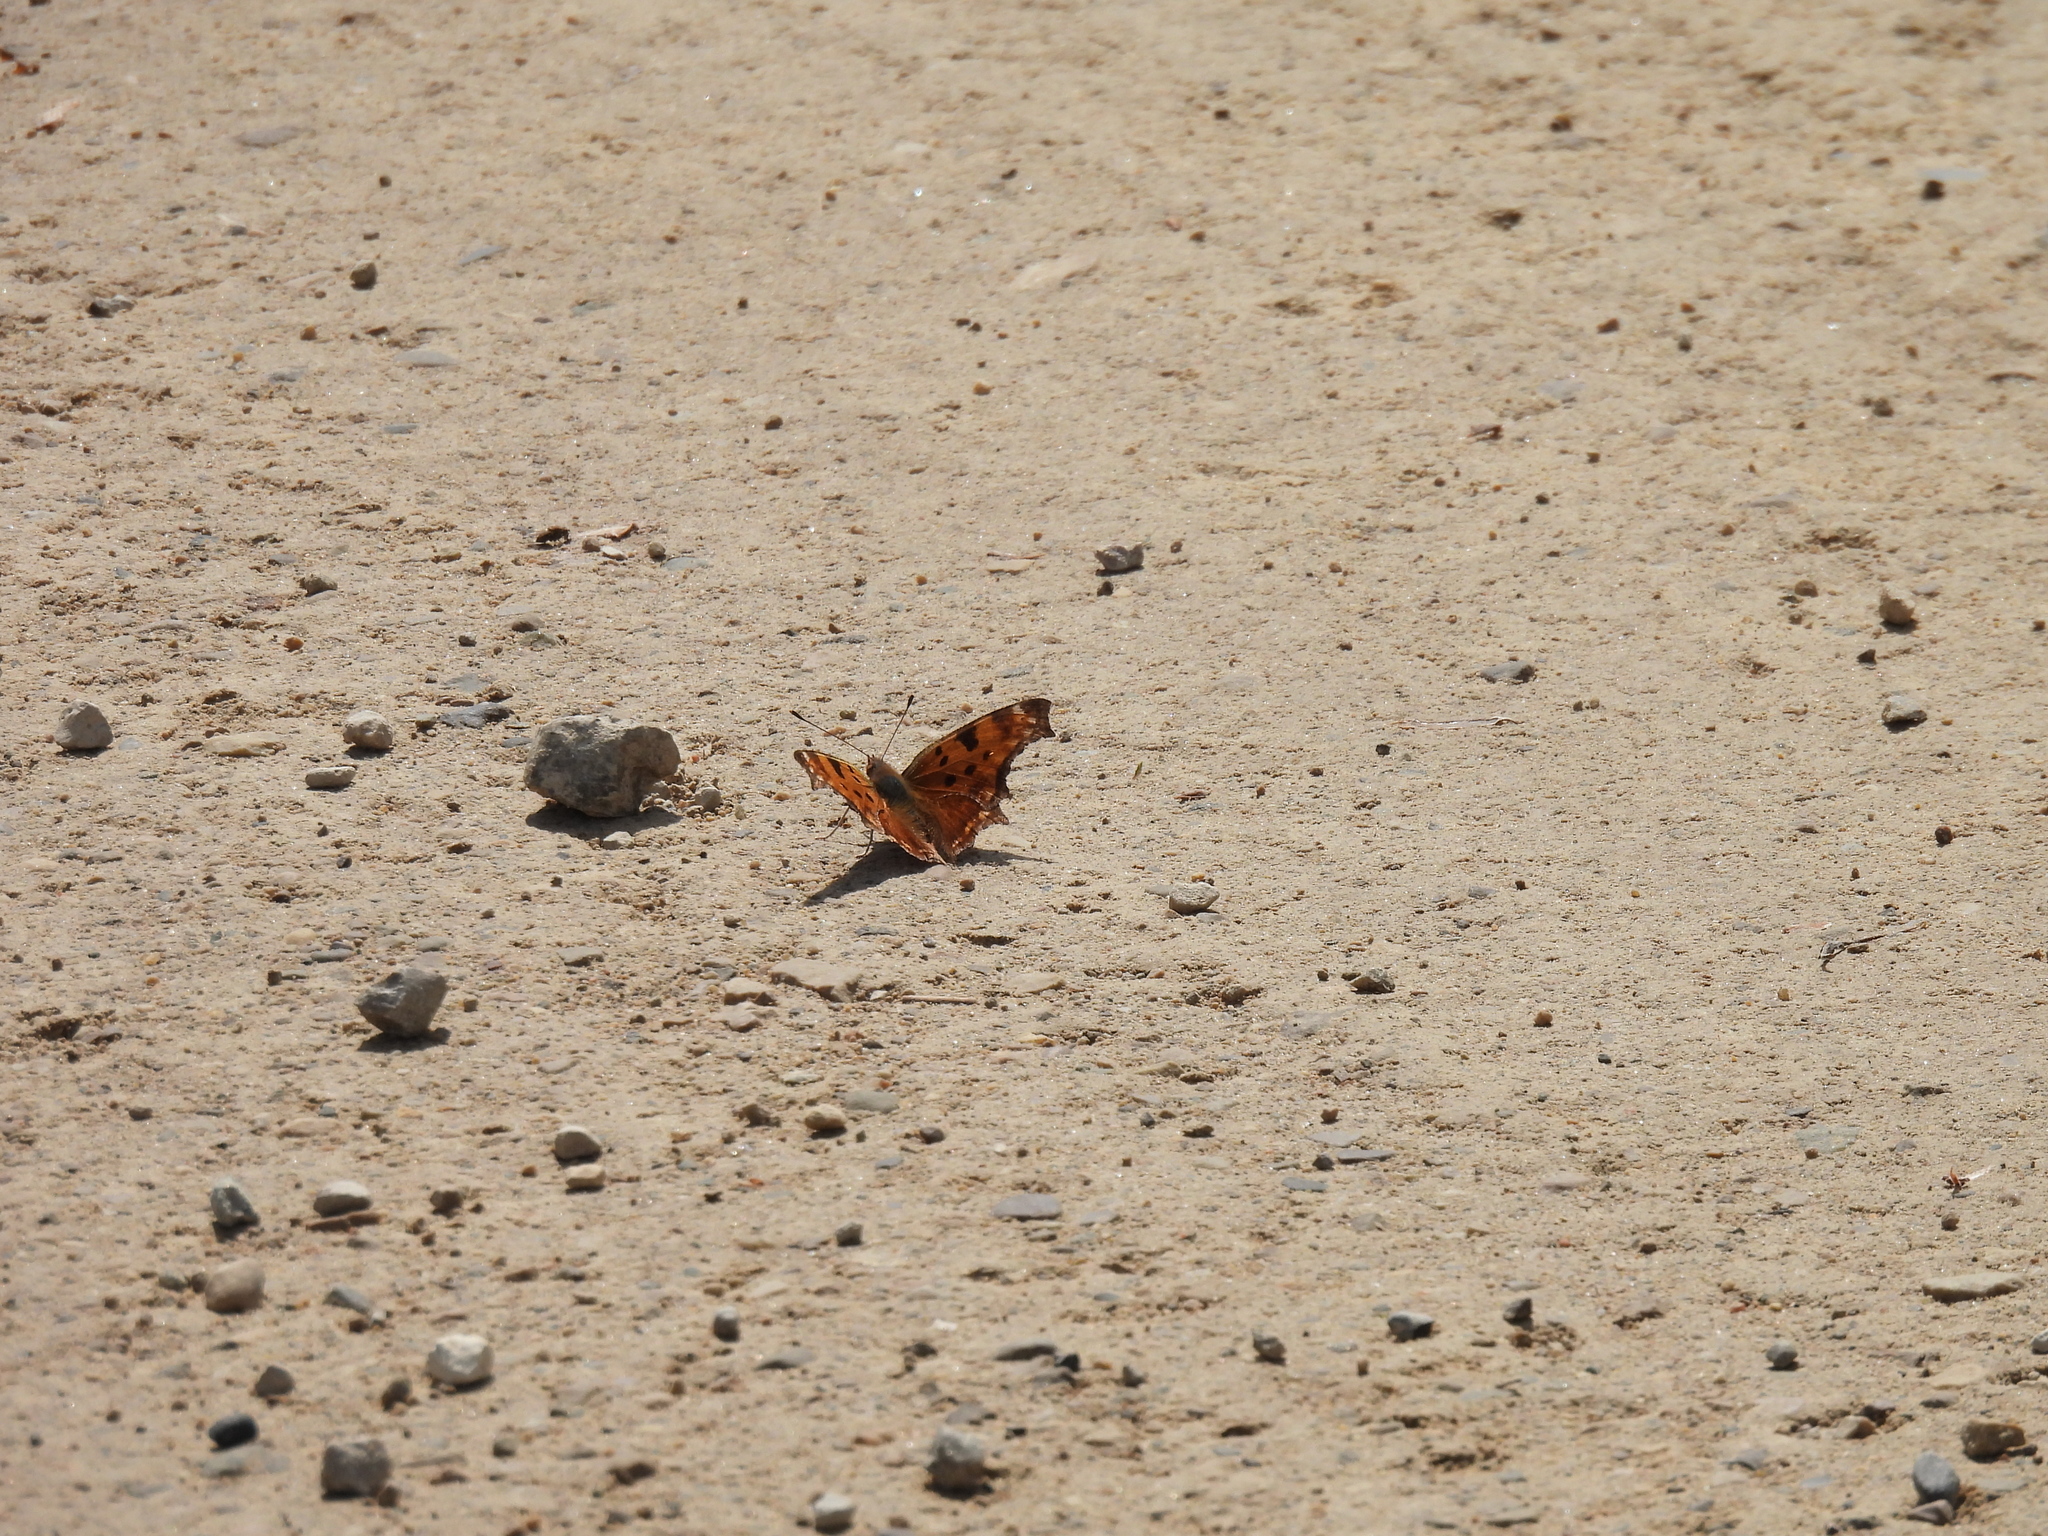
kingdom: Animalia
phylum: Arthropoda
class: Insecta
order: Lepidoptera
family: Nymphalidae
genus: Polygonia
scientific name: Polygonia comma
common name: Eastern comma
